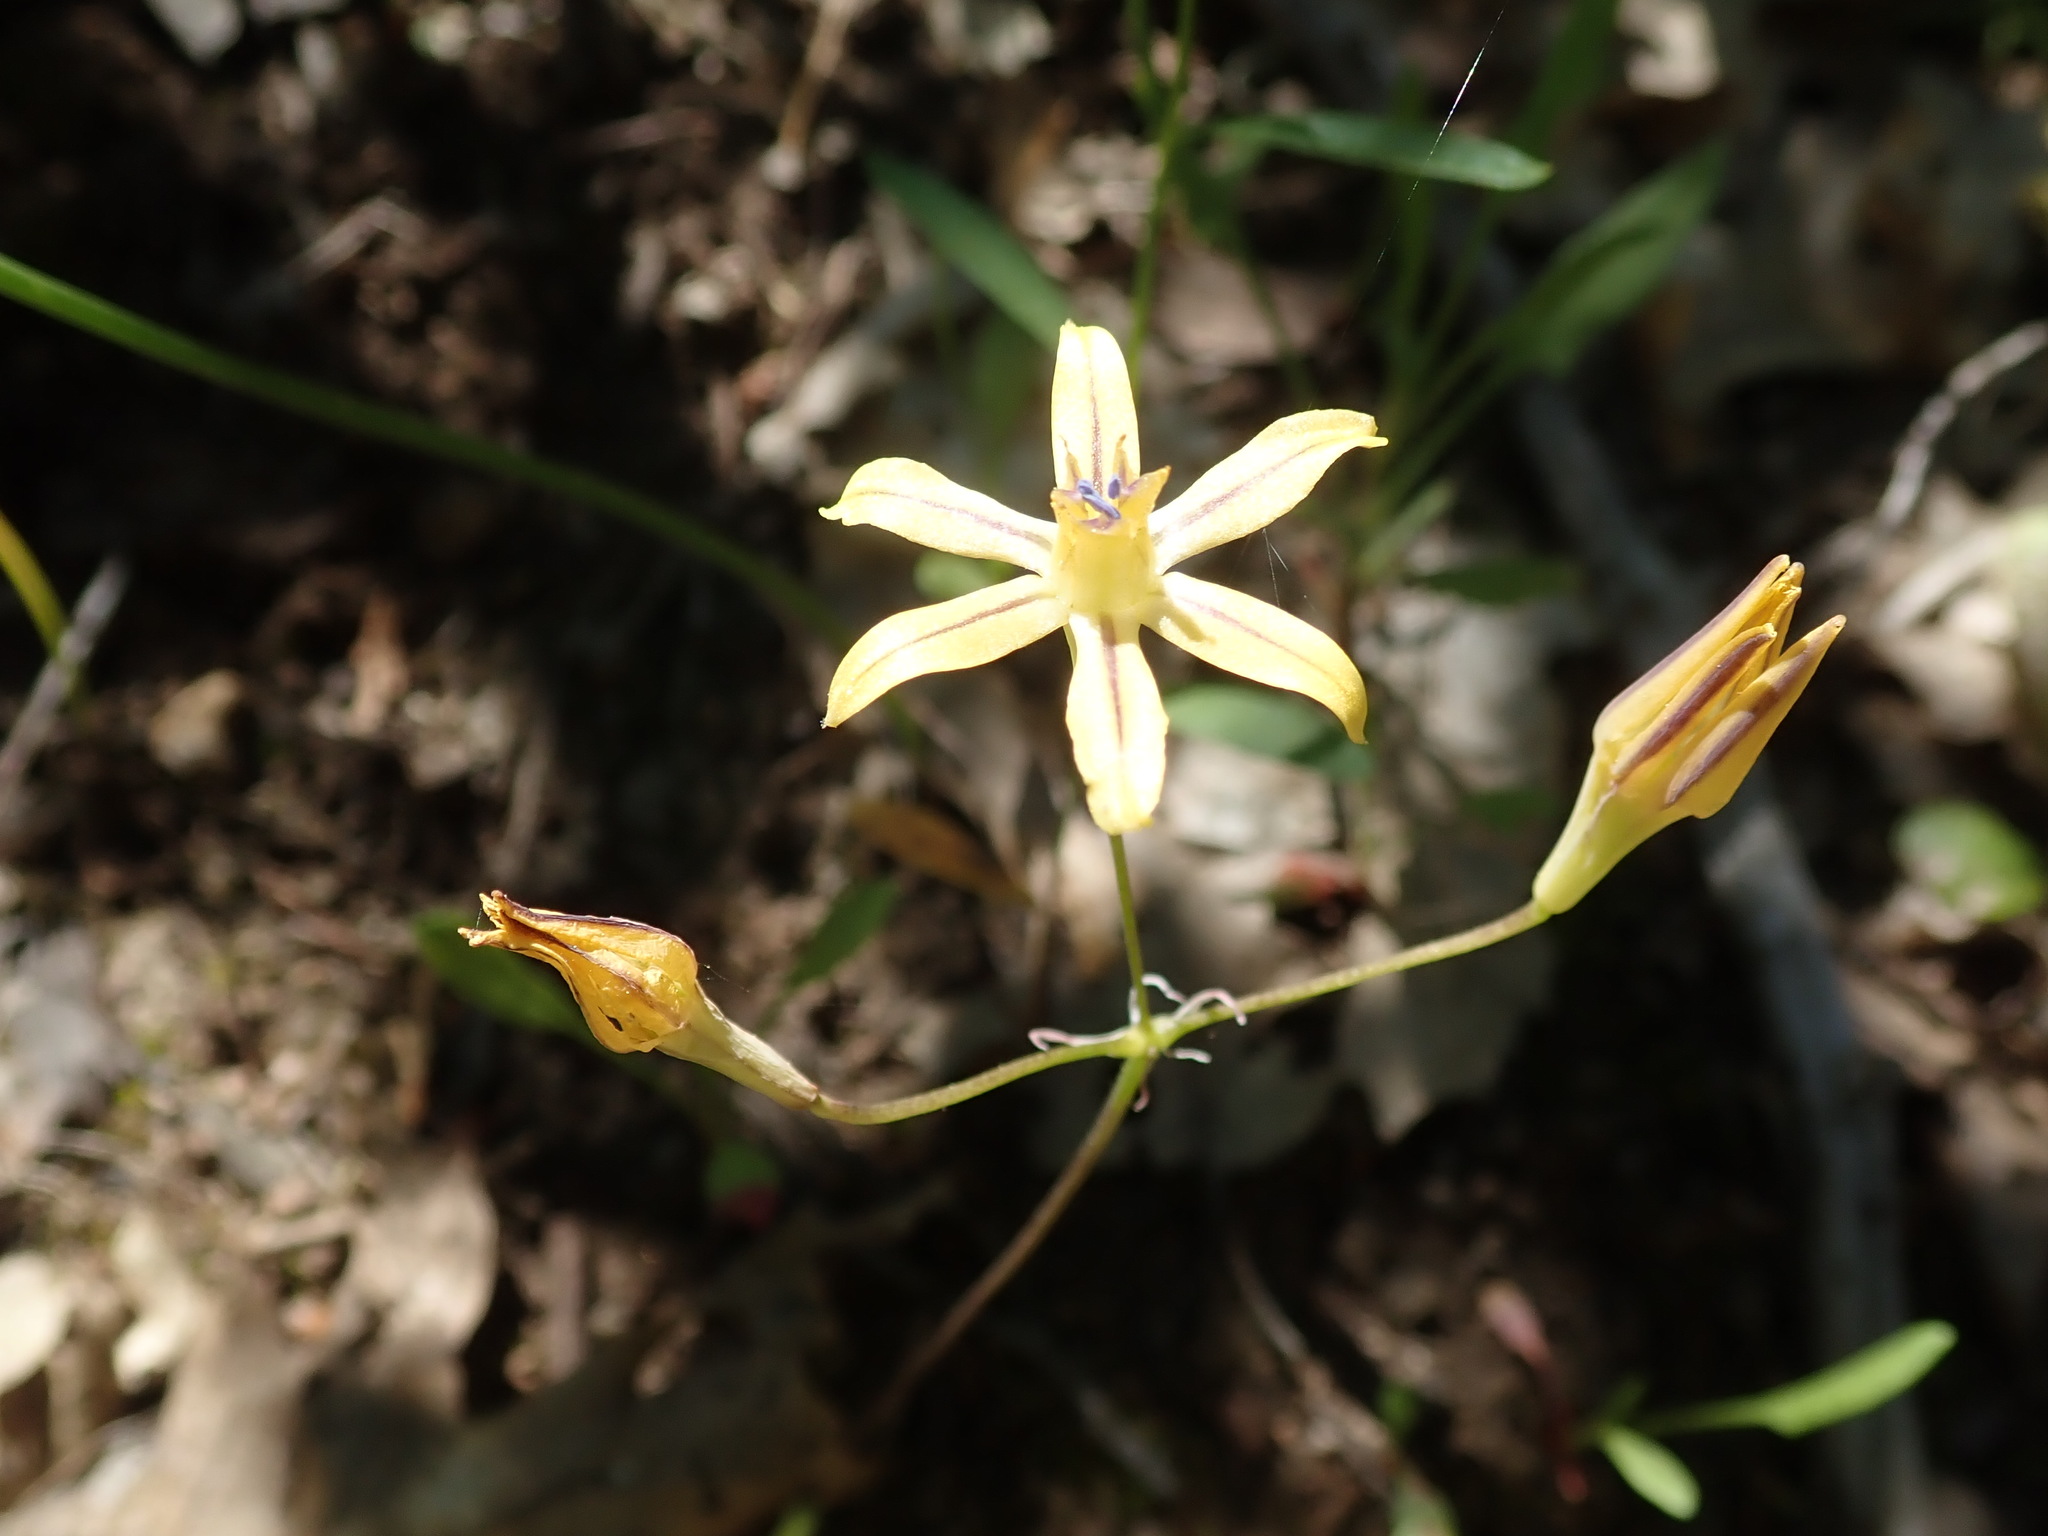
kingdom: Plantae
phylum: Tracheophyta
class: Liliopsida
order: Asparagales
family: Asparagaceae
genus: Triteleia
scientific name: Triteleia ixioides
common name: Yellow-brodiaea
